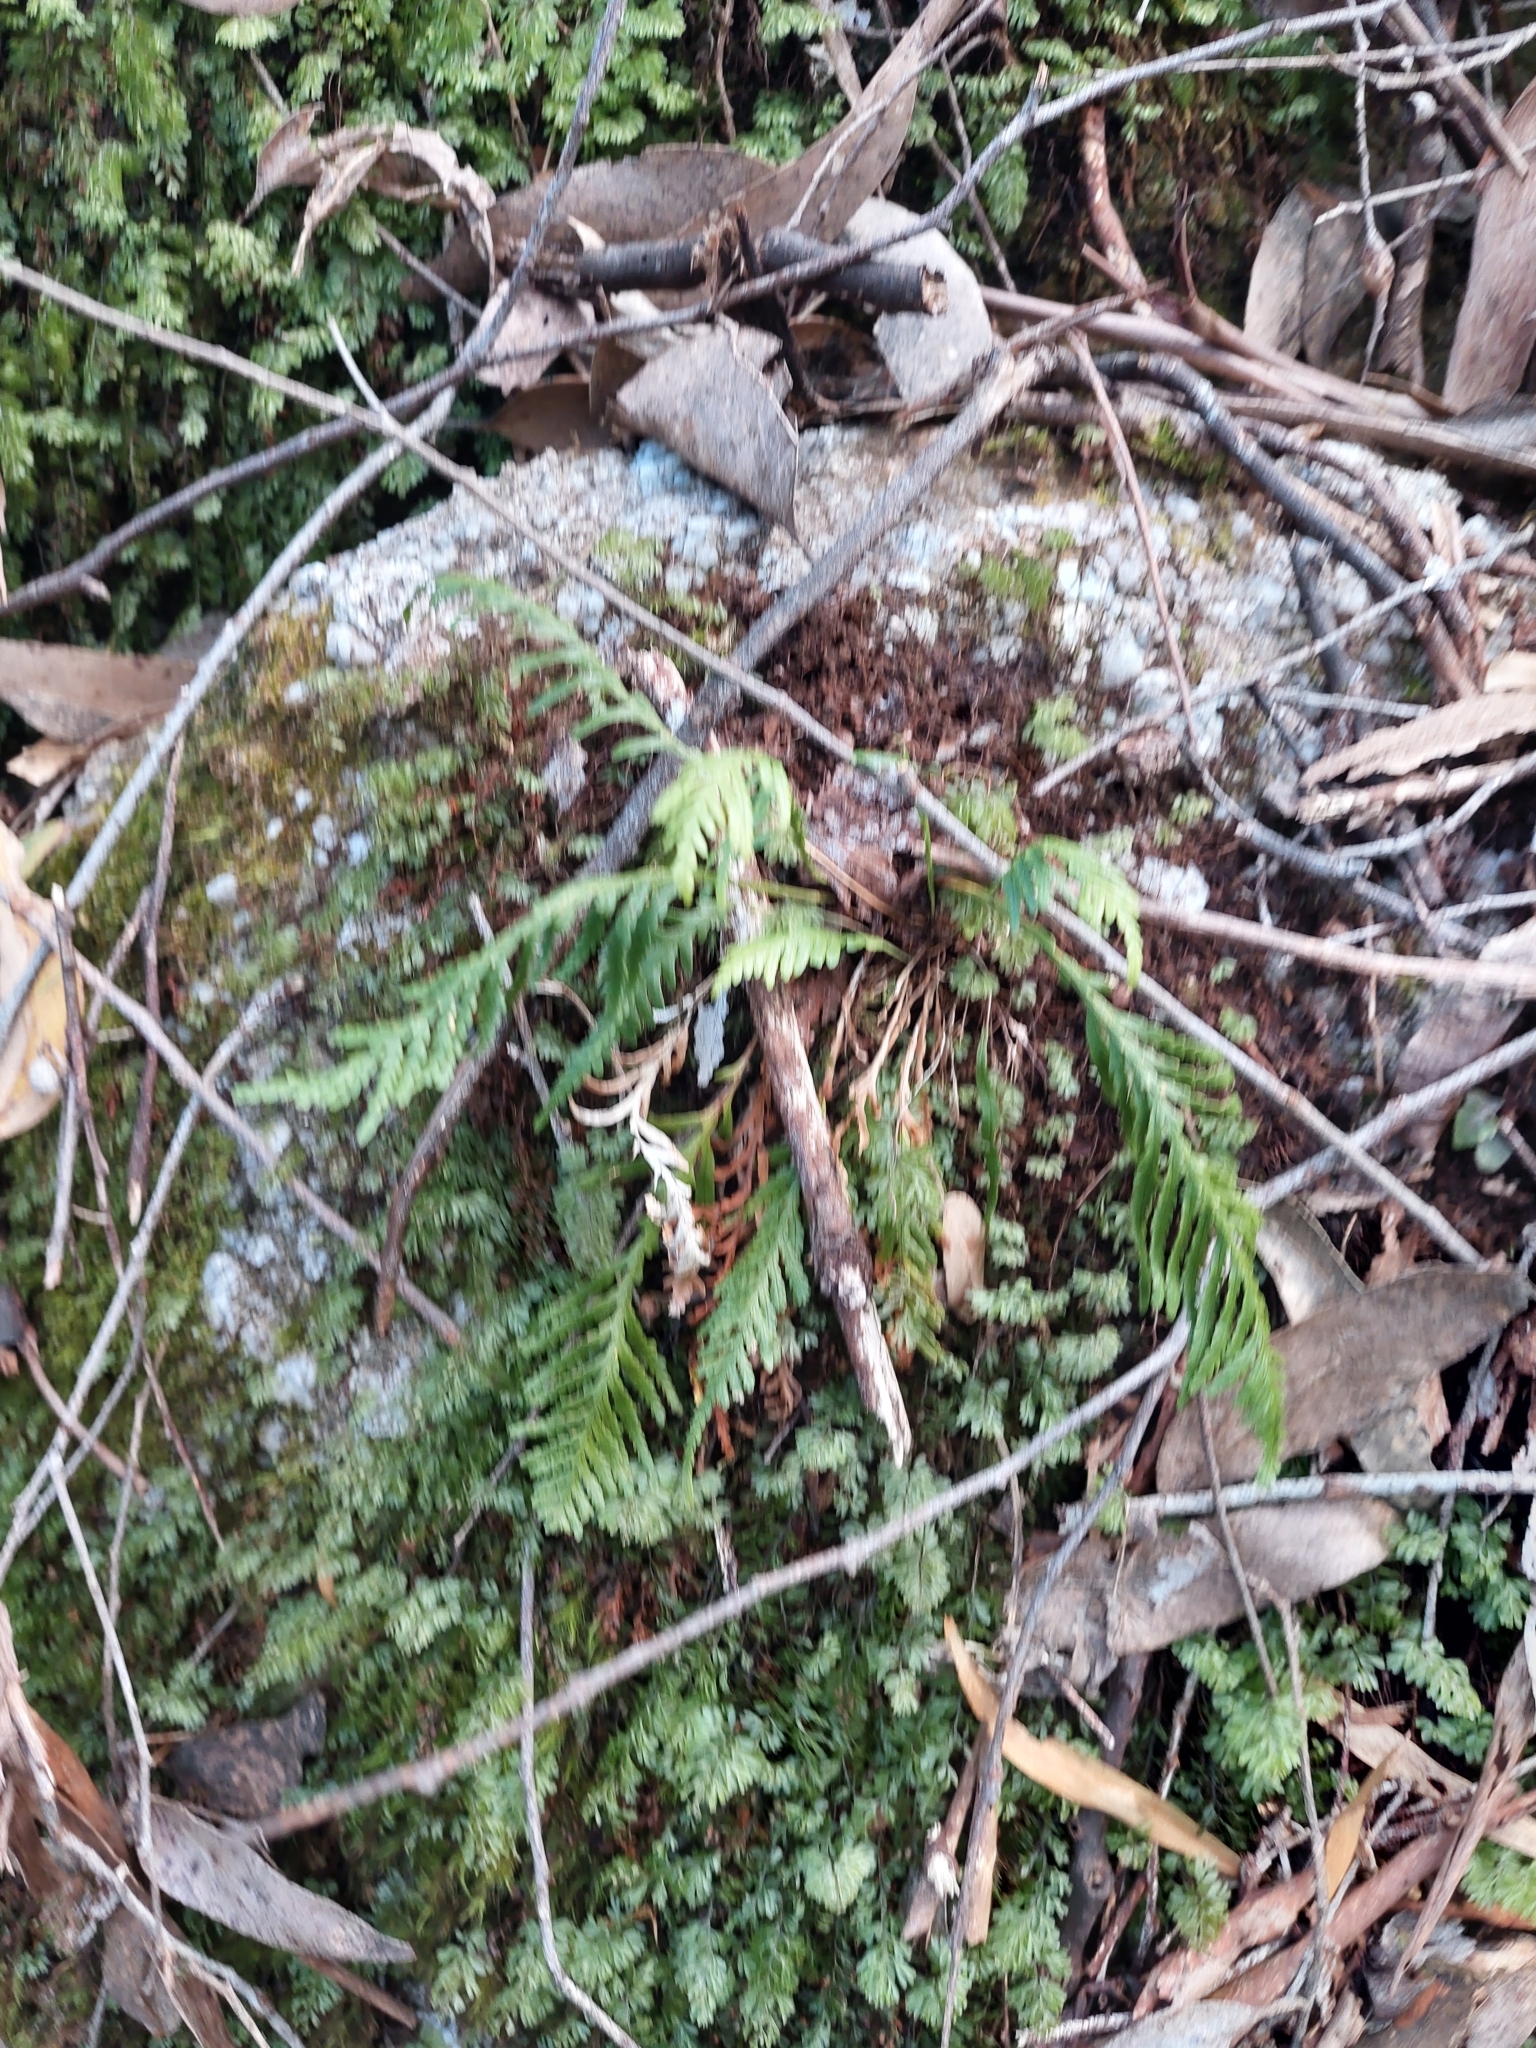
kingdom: Plantae
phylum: Tracheophyta
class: Polypodiopsida
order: Polypodiales
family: Polypodiaceae
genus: Notogrammitis
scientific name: Notogrammitis heterophylla
